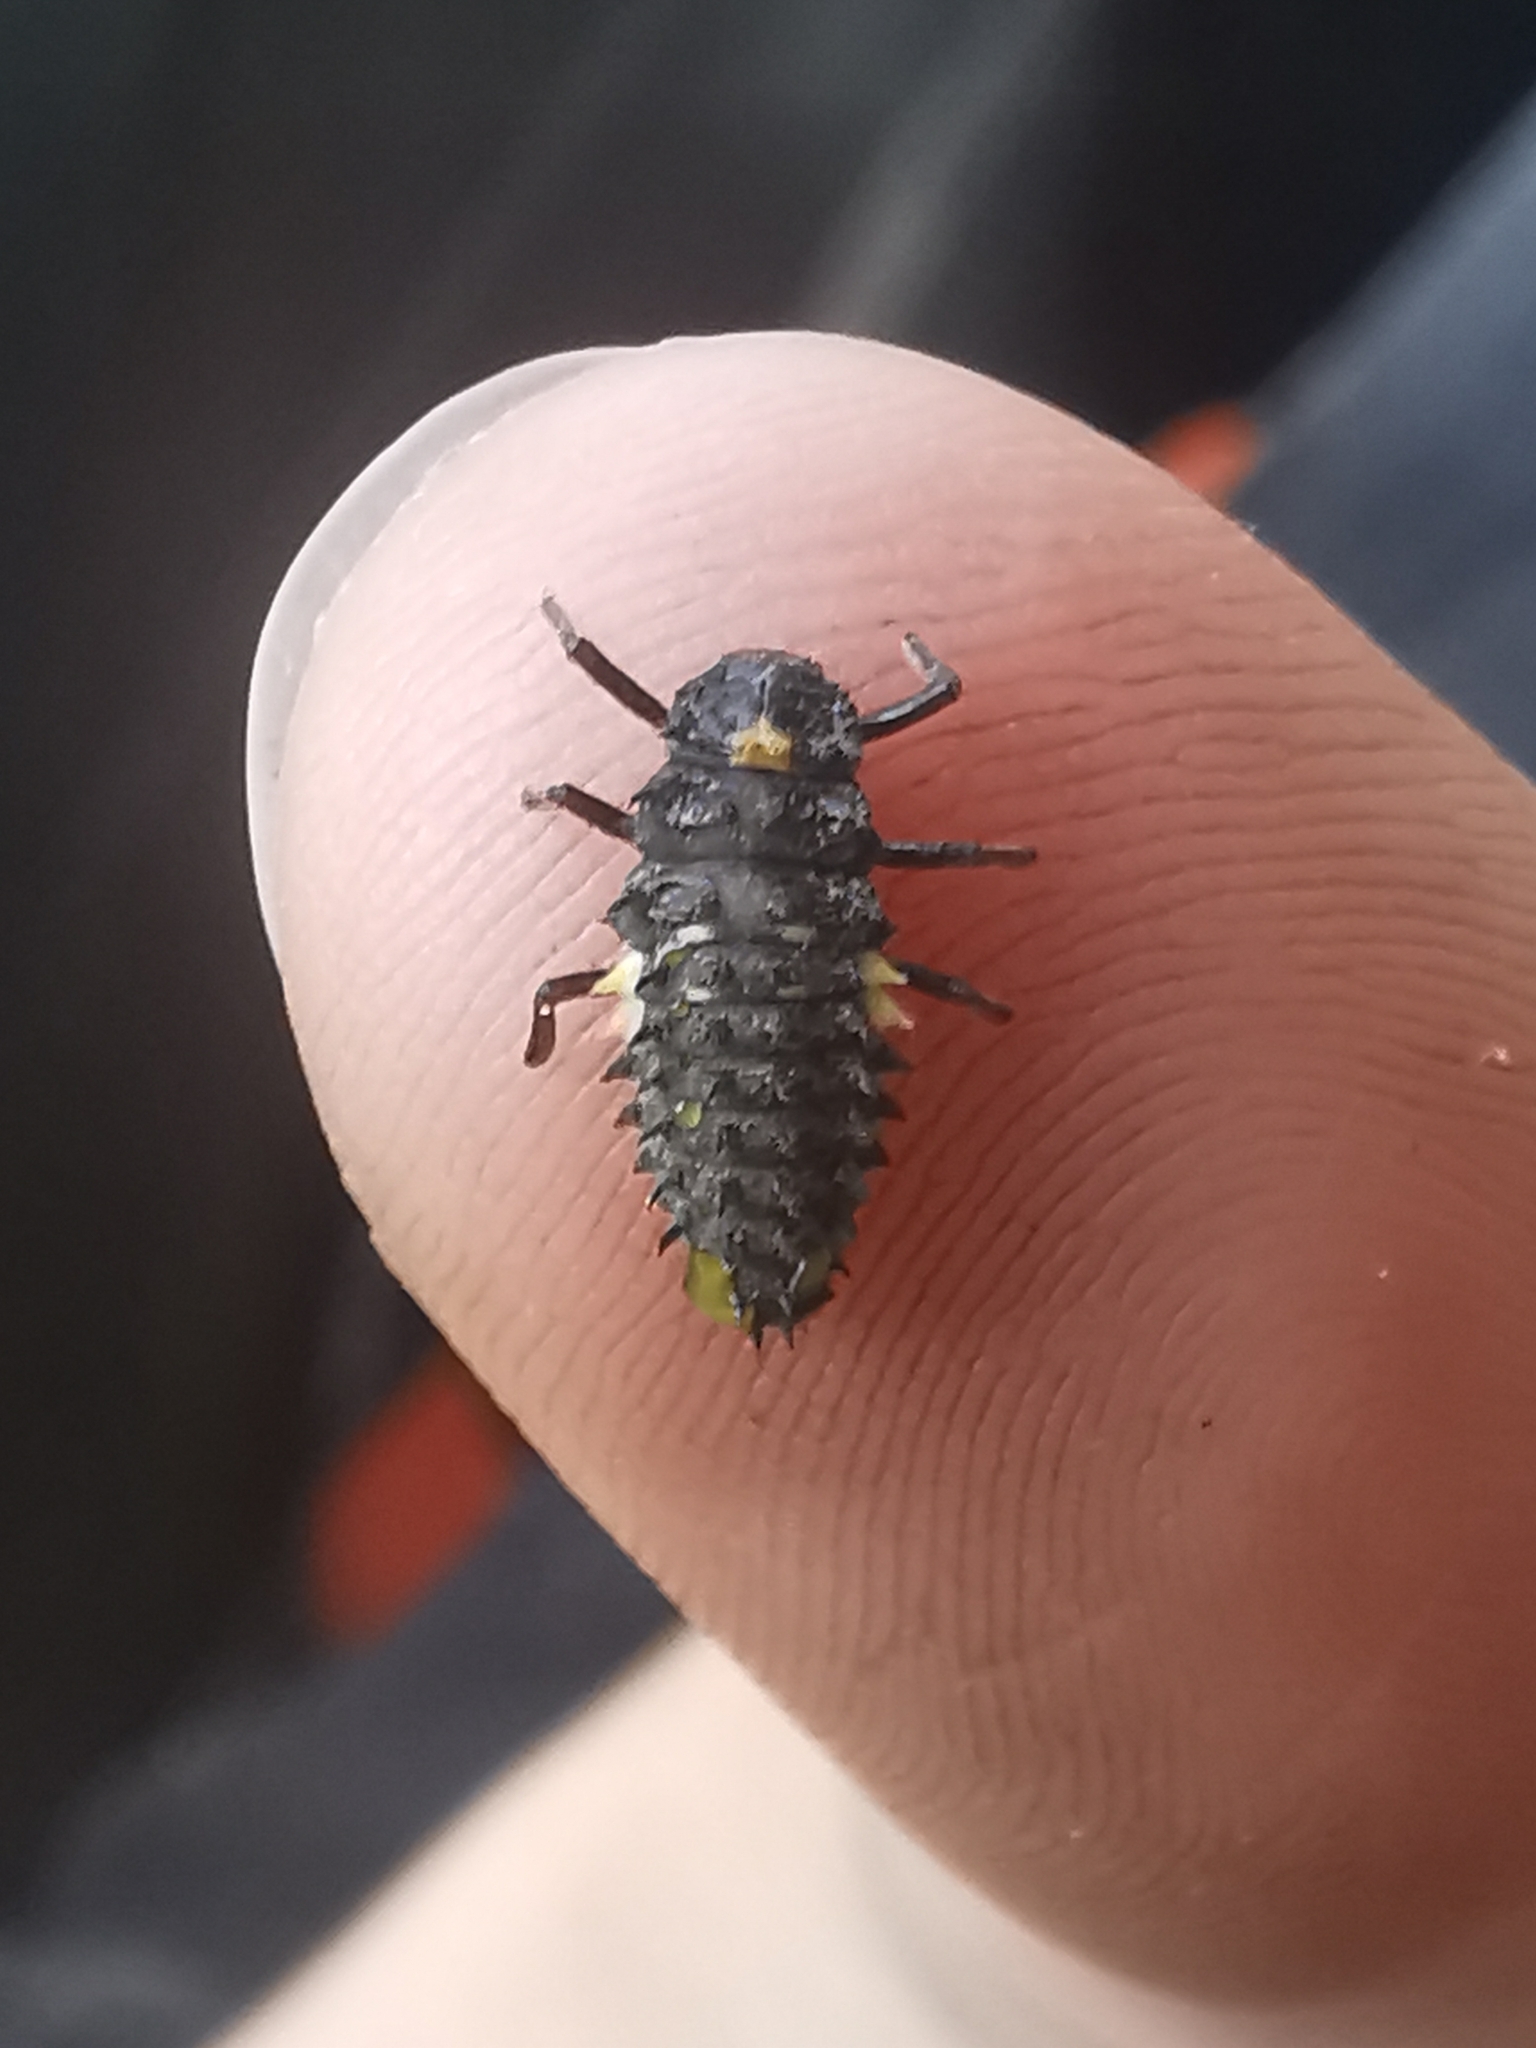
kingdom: Animalia
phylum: Arthropoda
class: Insecta
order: Coleoptera
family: Coccinellidae
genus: Anatis
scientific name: Anatis ocellata
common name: Eyed ladybird
